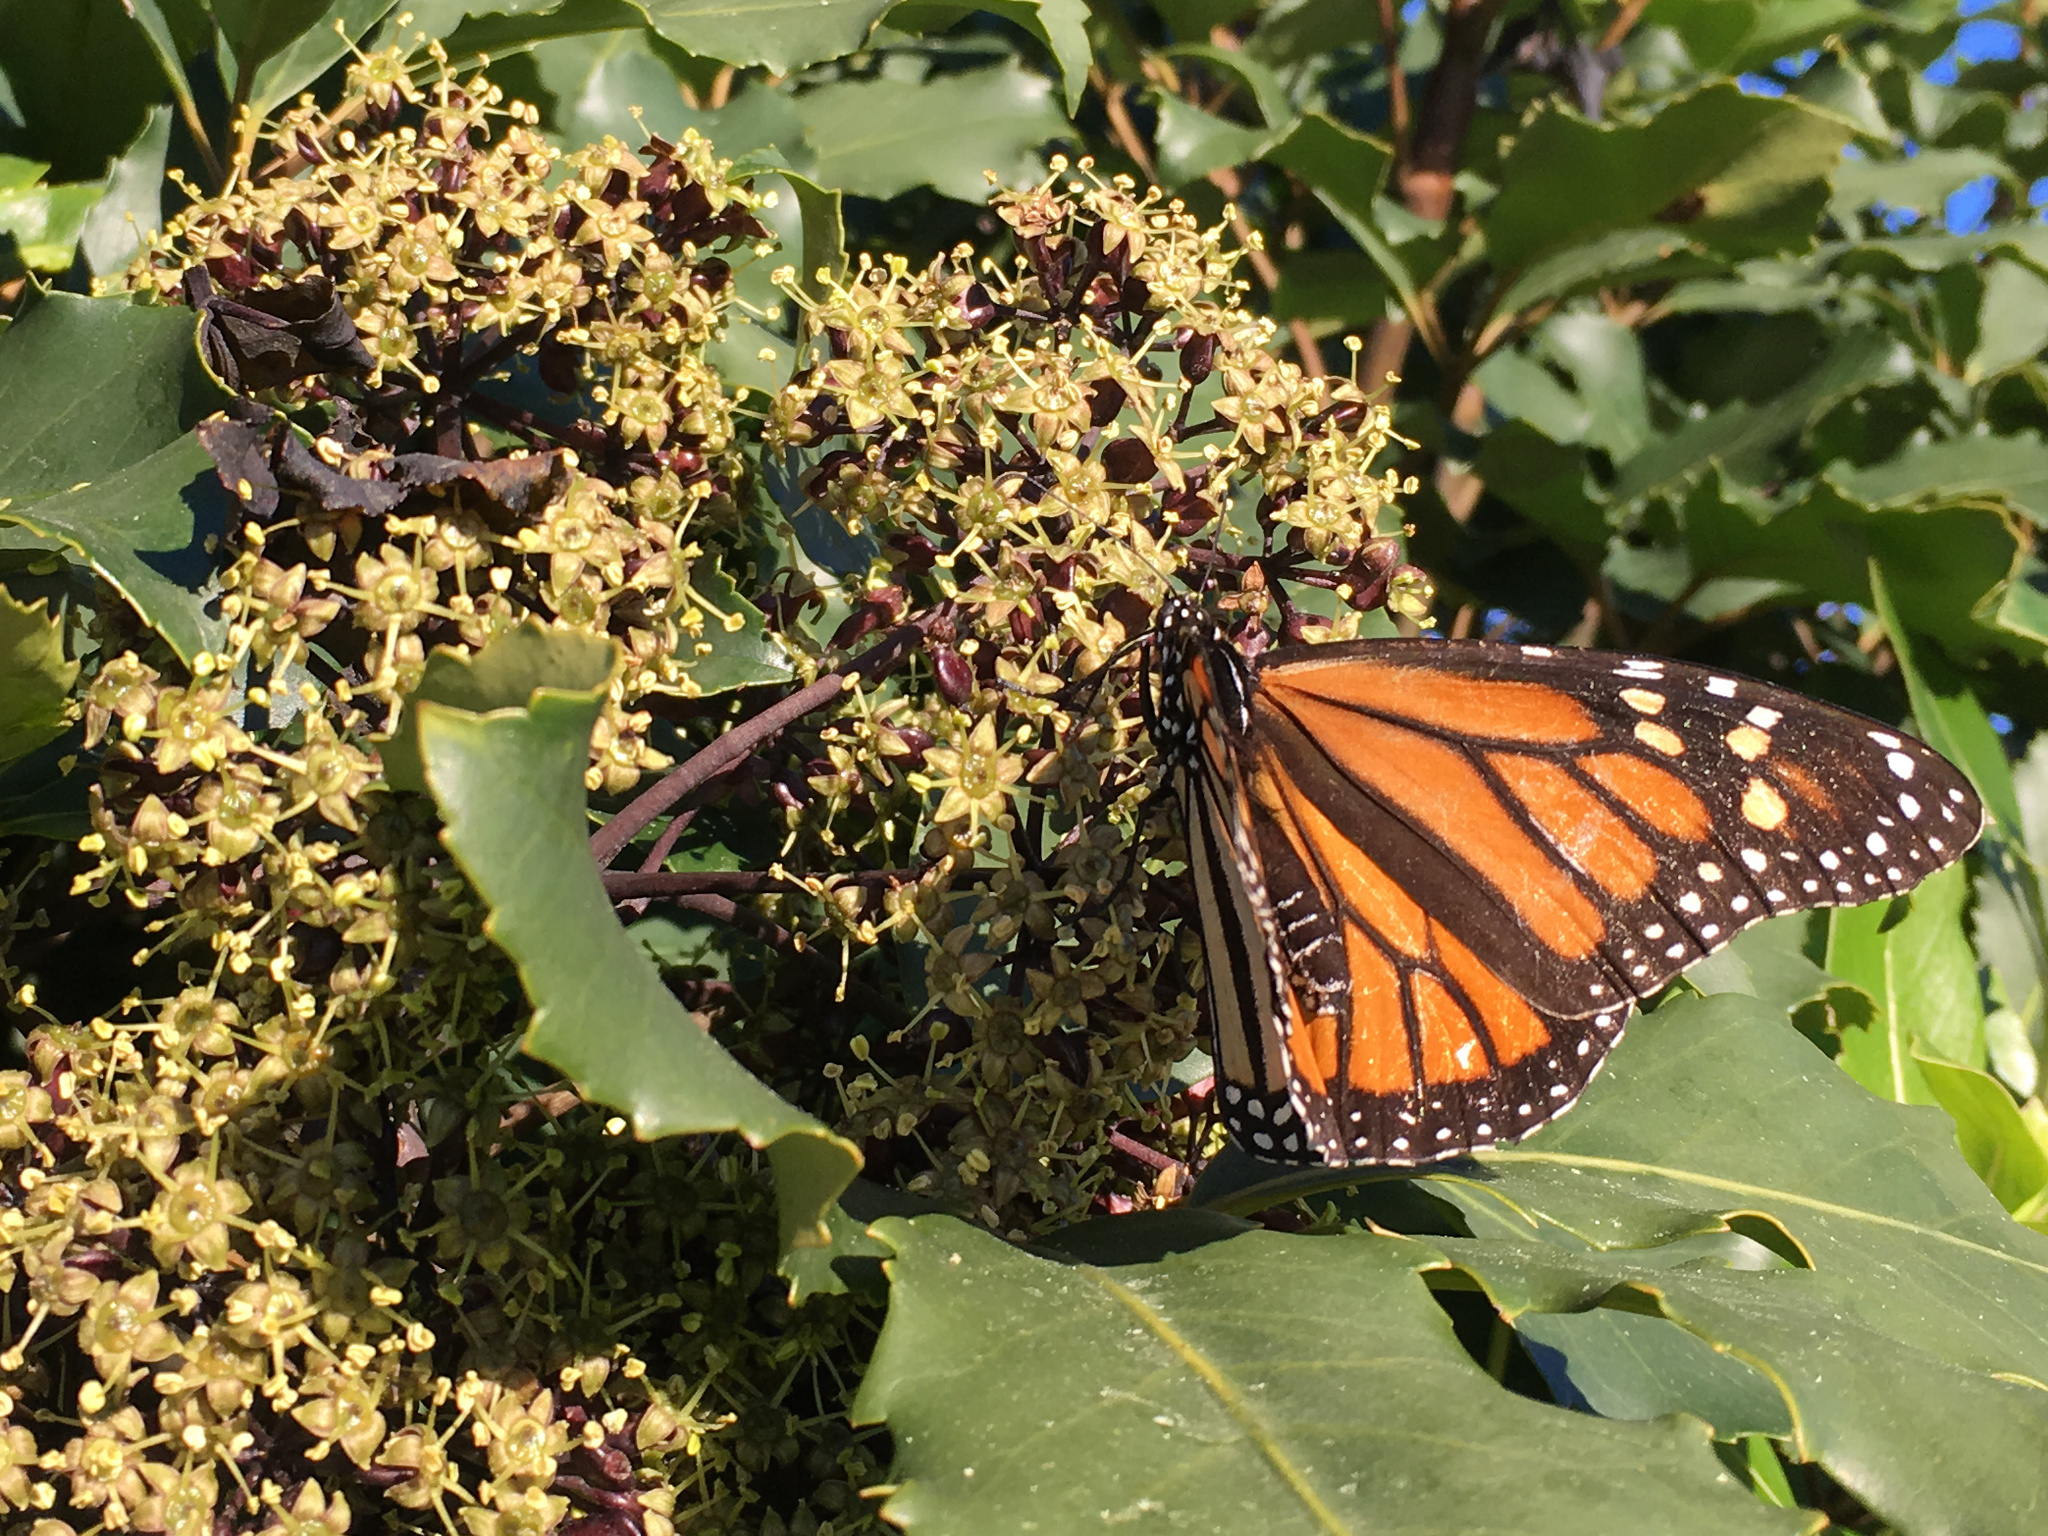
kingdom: Animalia
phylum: Arthropoda
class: Insecta
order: Lepidoptera
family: Nymphalidae
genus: Danaus
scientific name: Danaus plexippus
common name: Monarch
